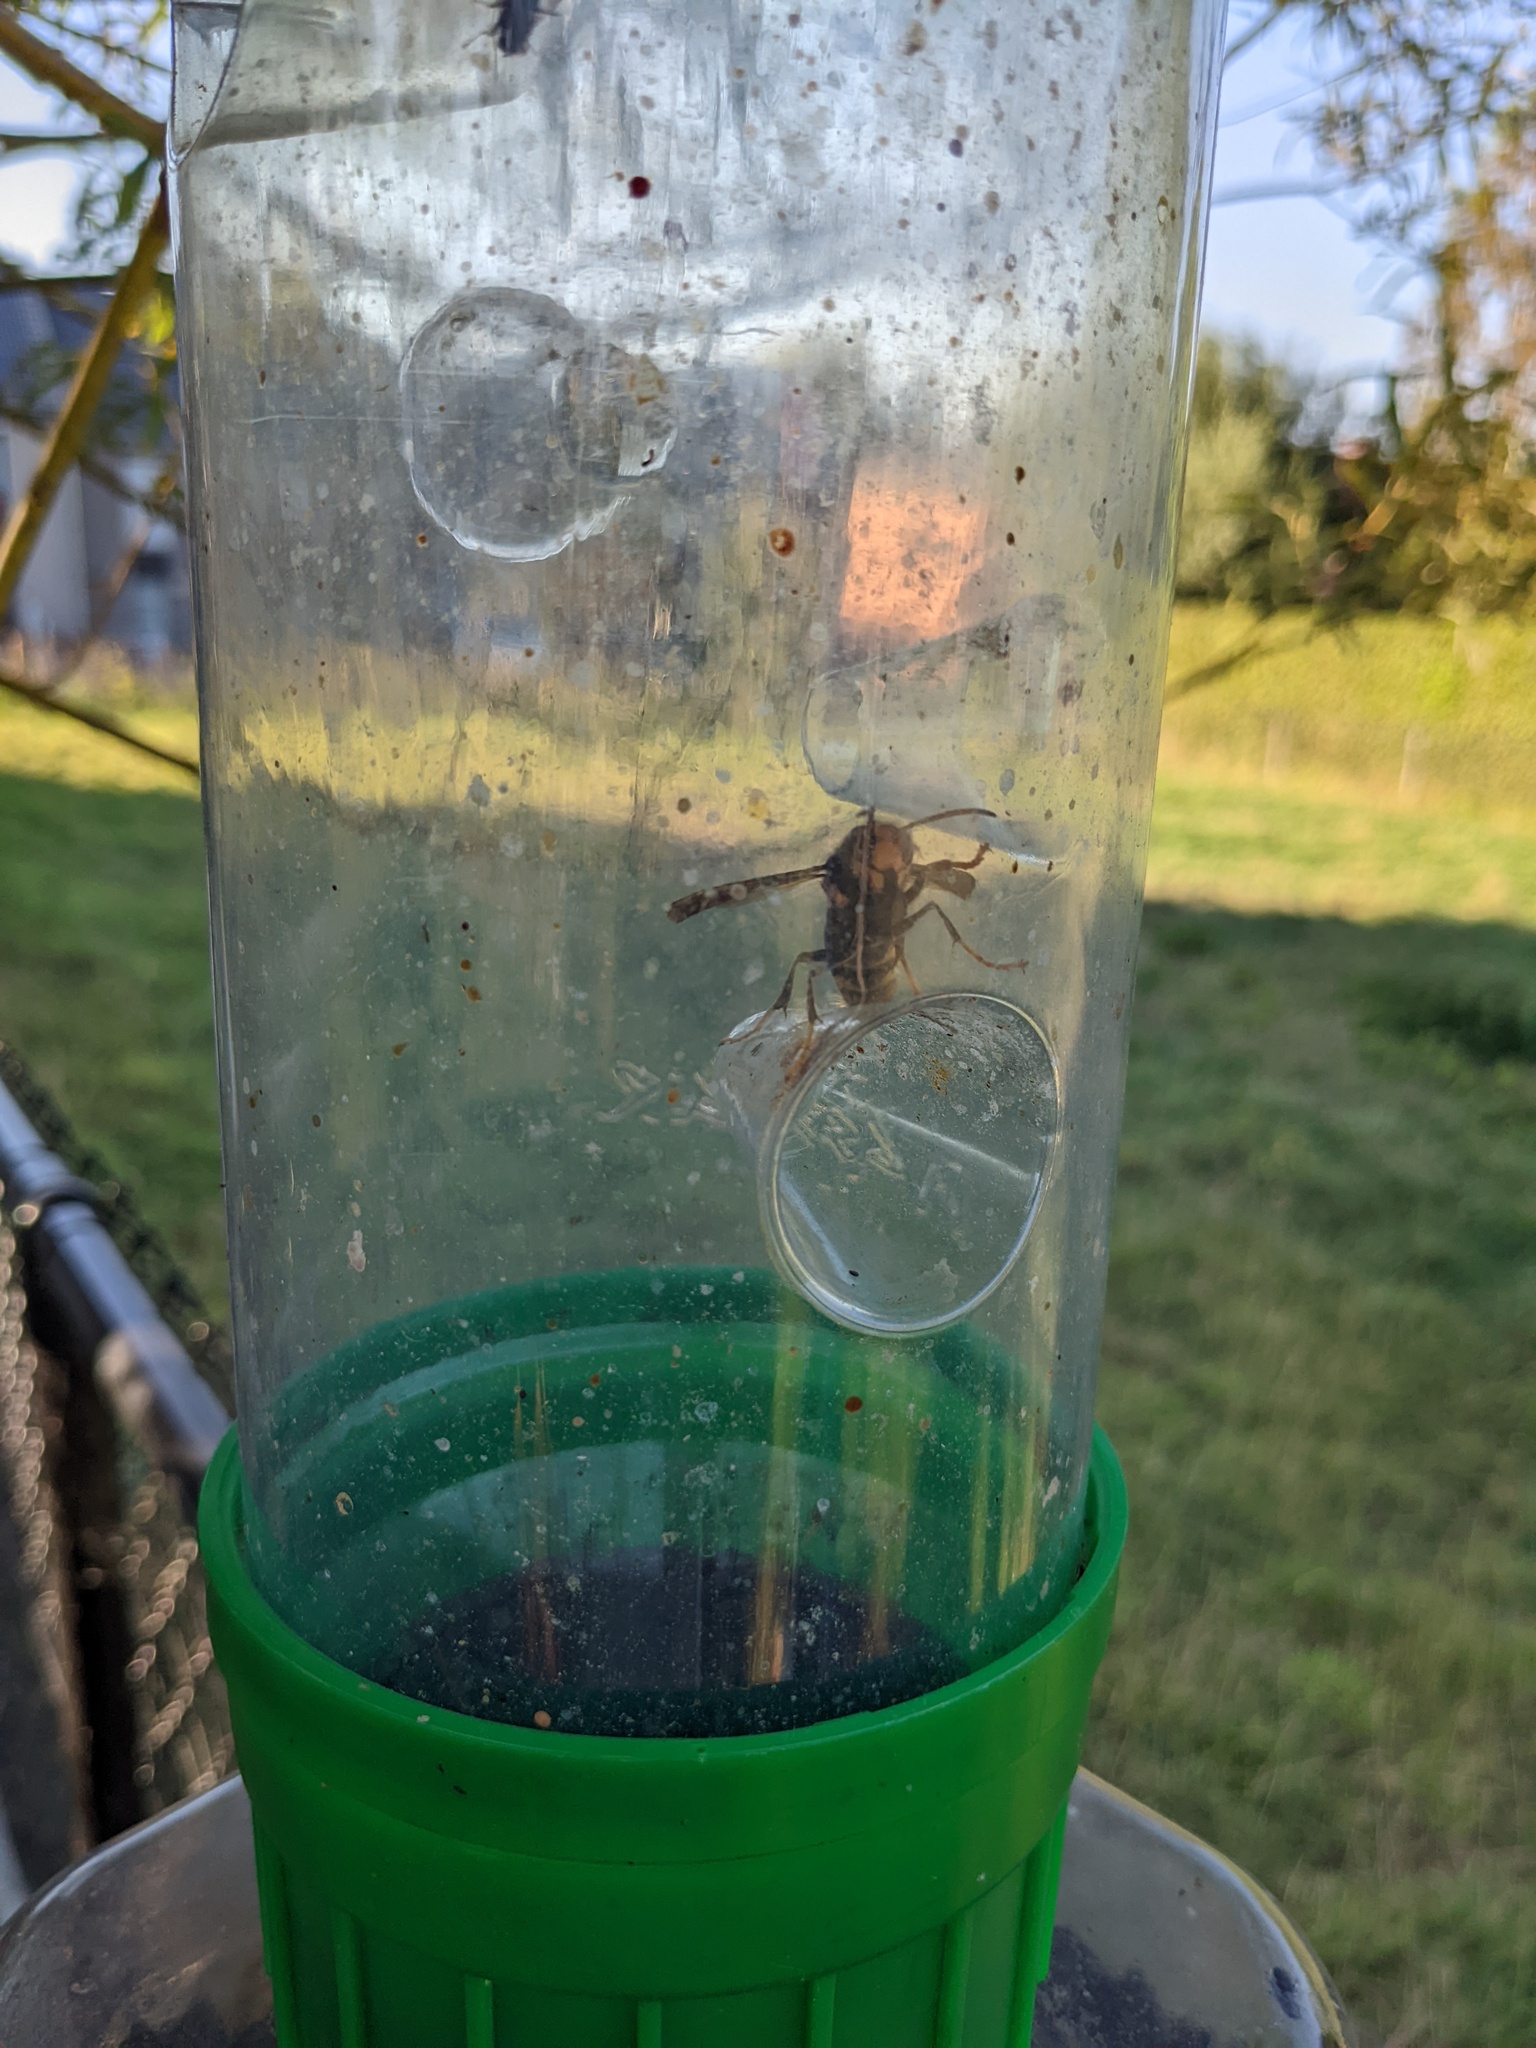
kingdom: Animalia
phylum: Arthropoda
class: Insecta
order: Hymenoptera
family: Vespidae
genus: Vespa
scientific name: Vespa velutina
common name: Asian hornet
